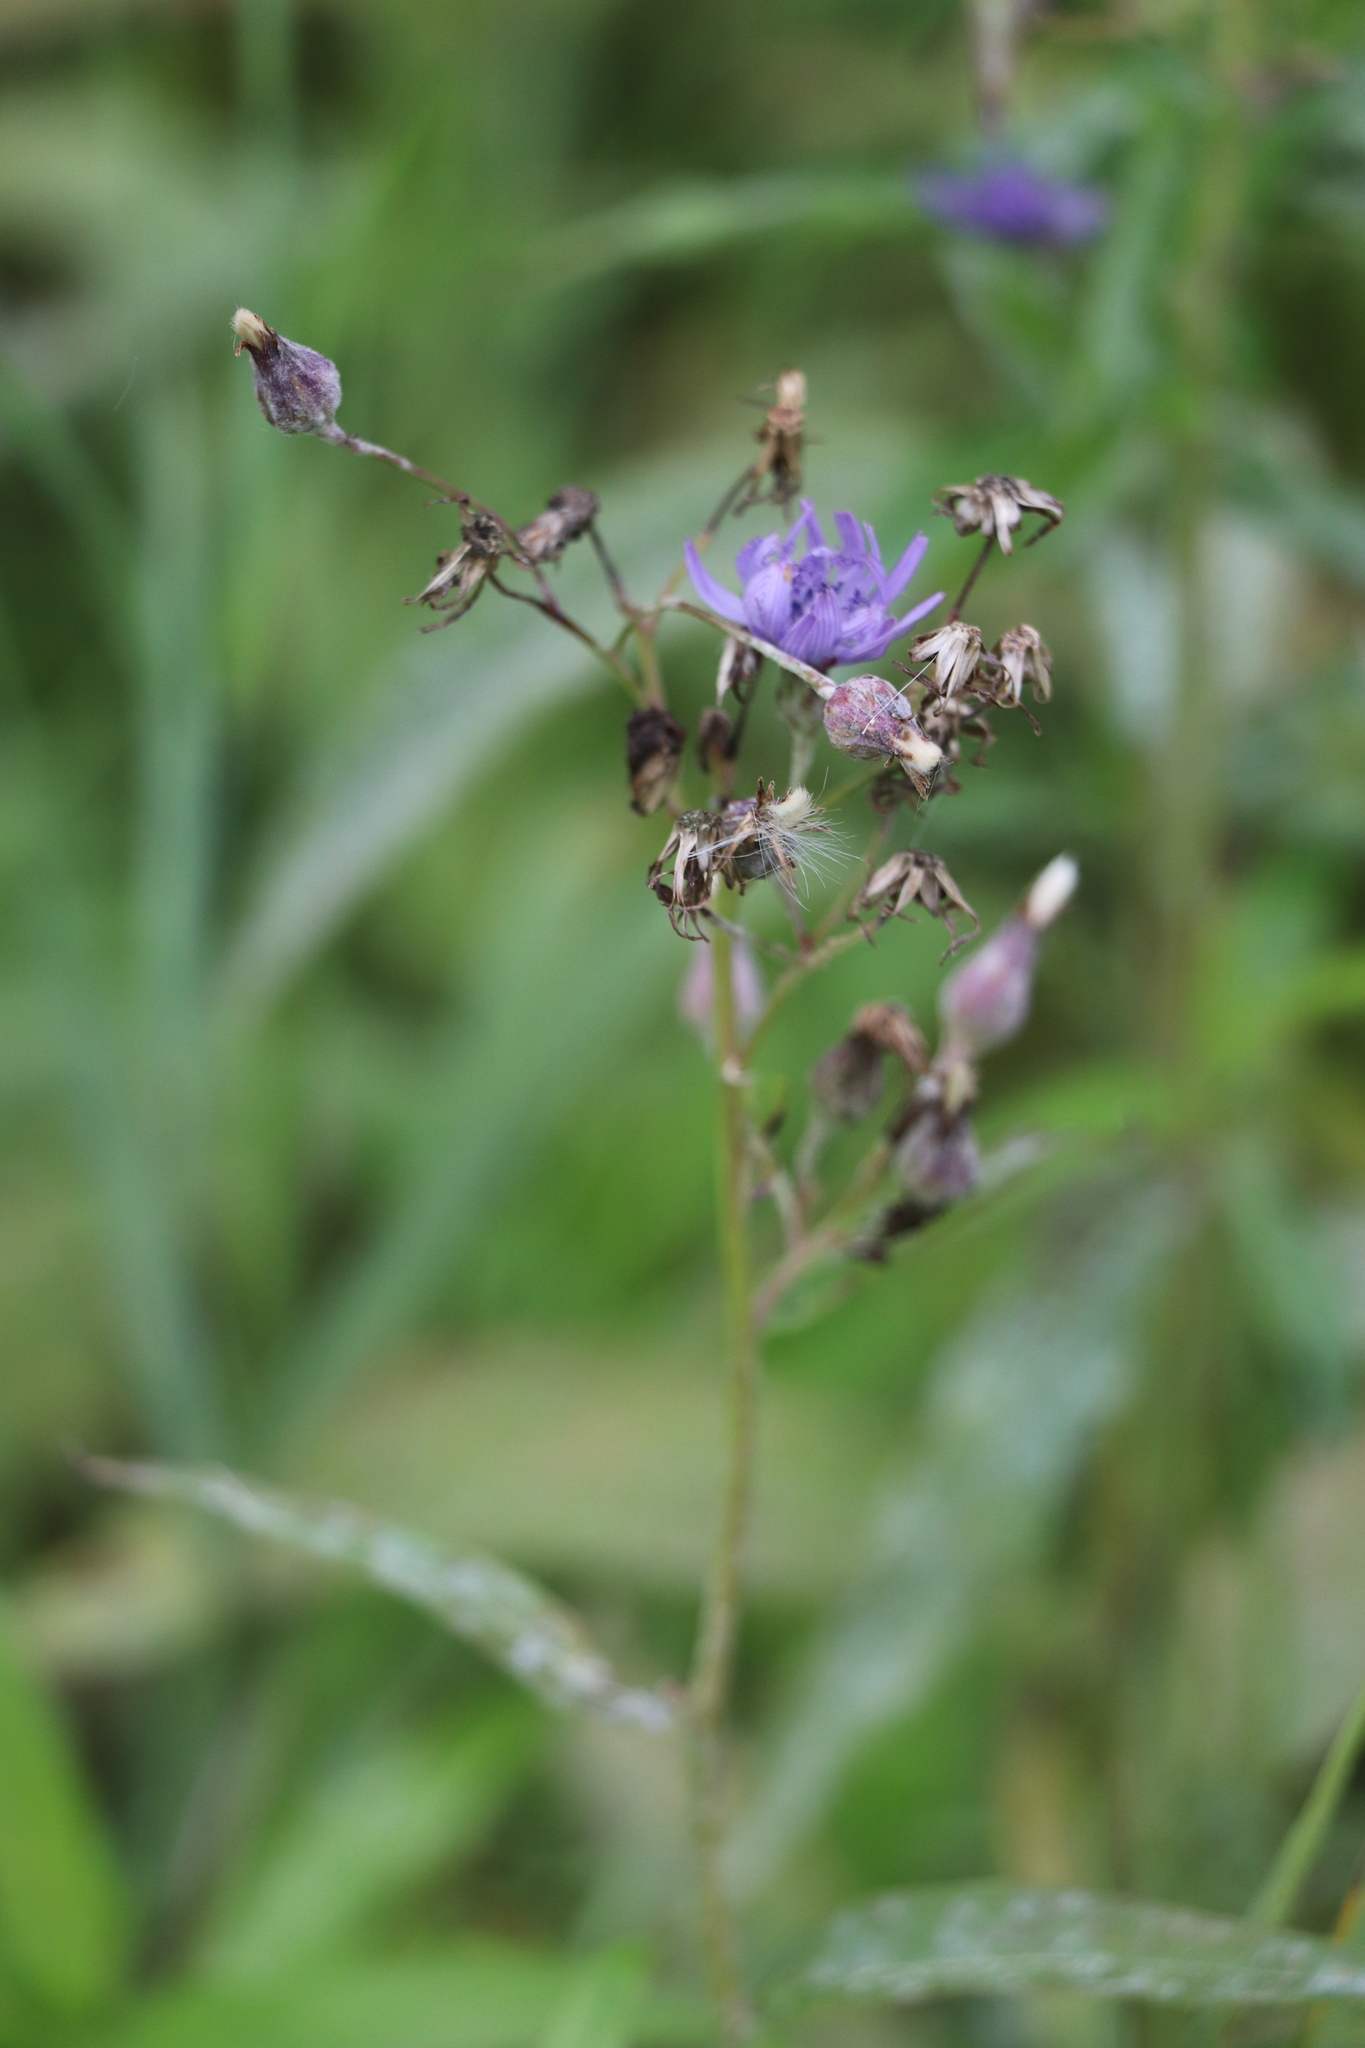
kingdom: Plantae
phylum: Tracheophyta
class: Magnoliopsida
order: Asterales
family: Asteraceae
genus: Lactuca
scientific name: Lactuca sibirica
